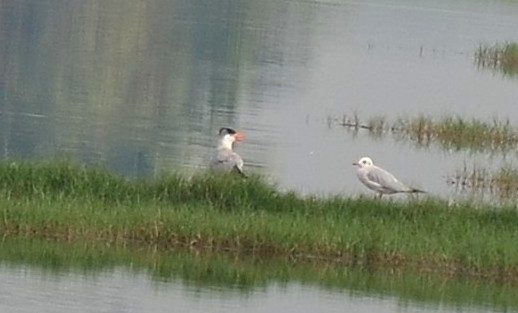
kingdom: Animalia
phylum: Chordata
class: Aves
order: Charadriiformes
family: Laridae
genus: Hydroprogne
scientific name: Hydroprogne caspia
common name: Caspian tern
